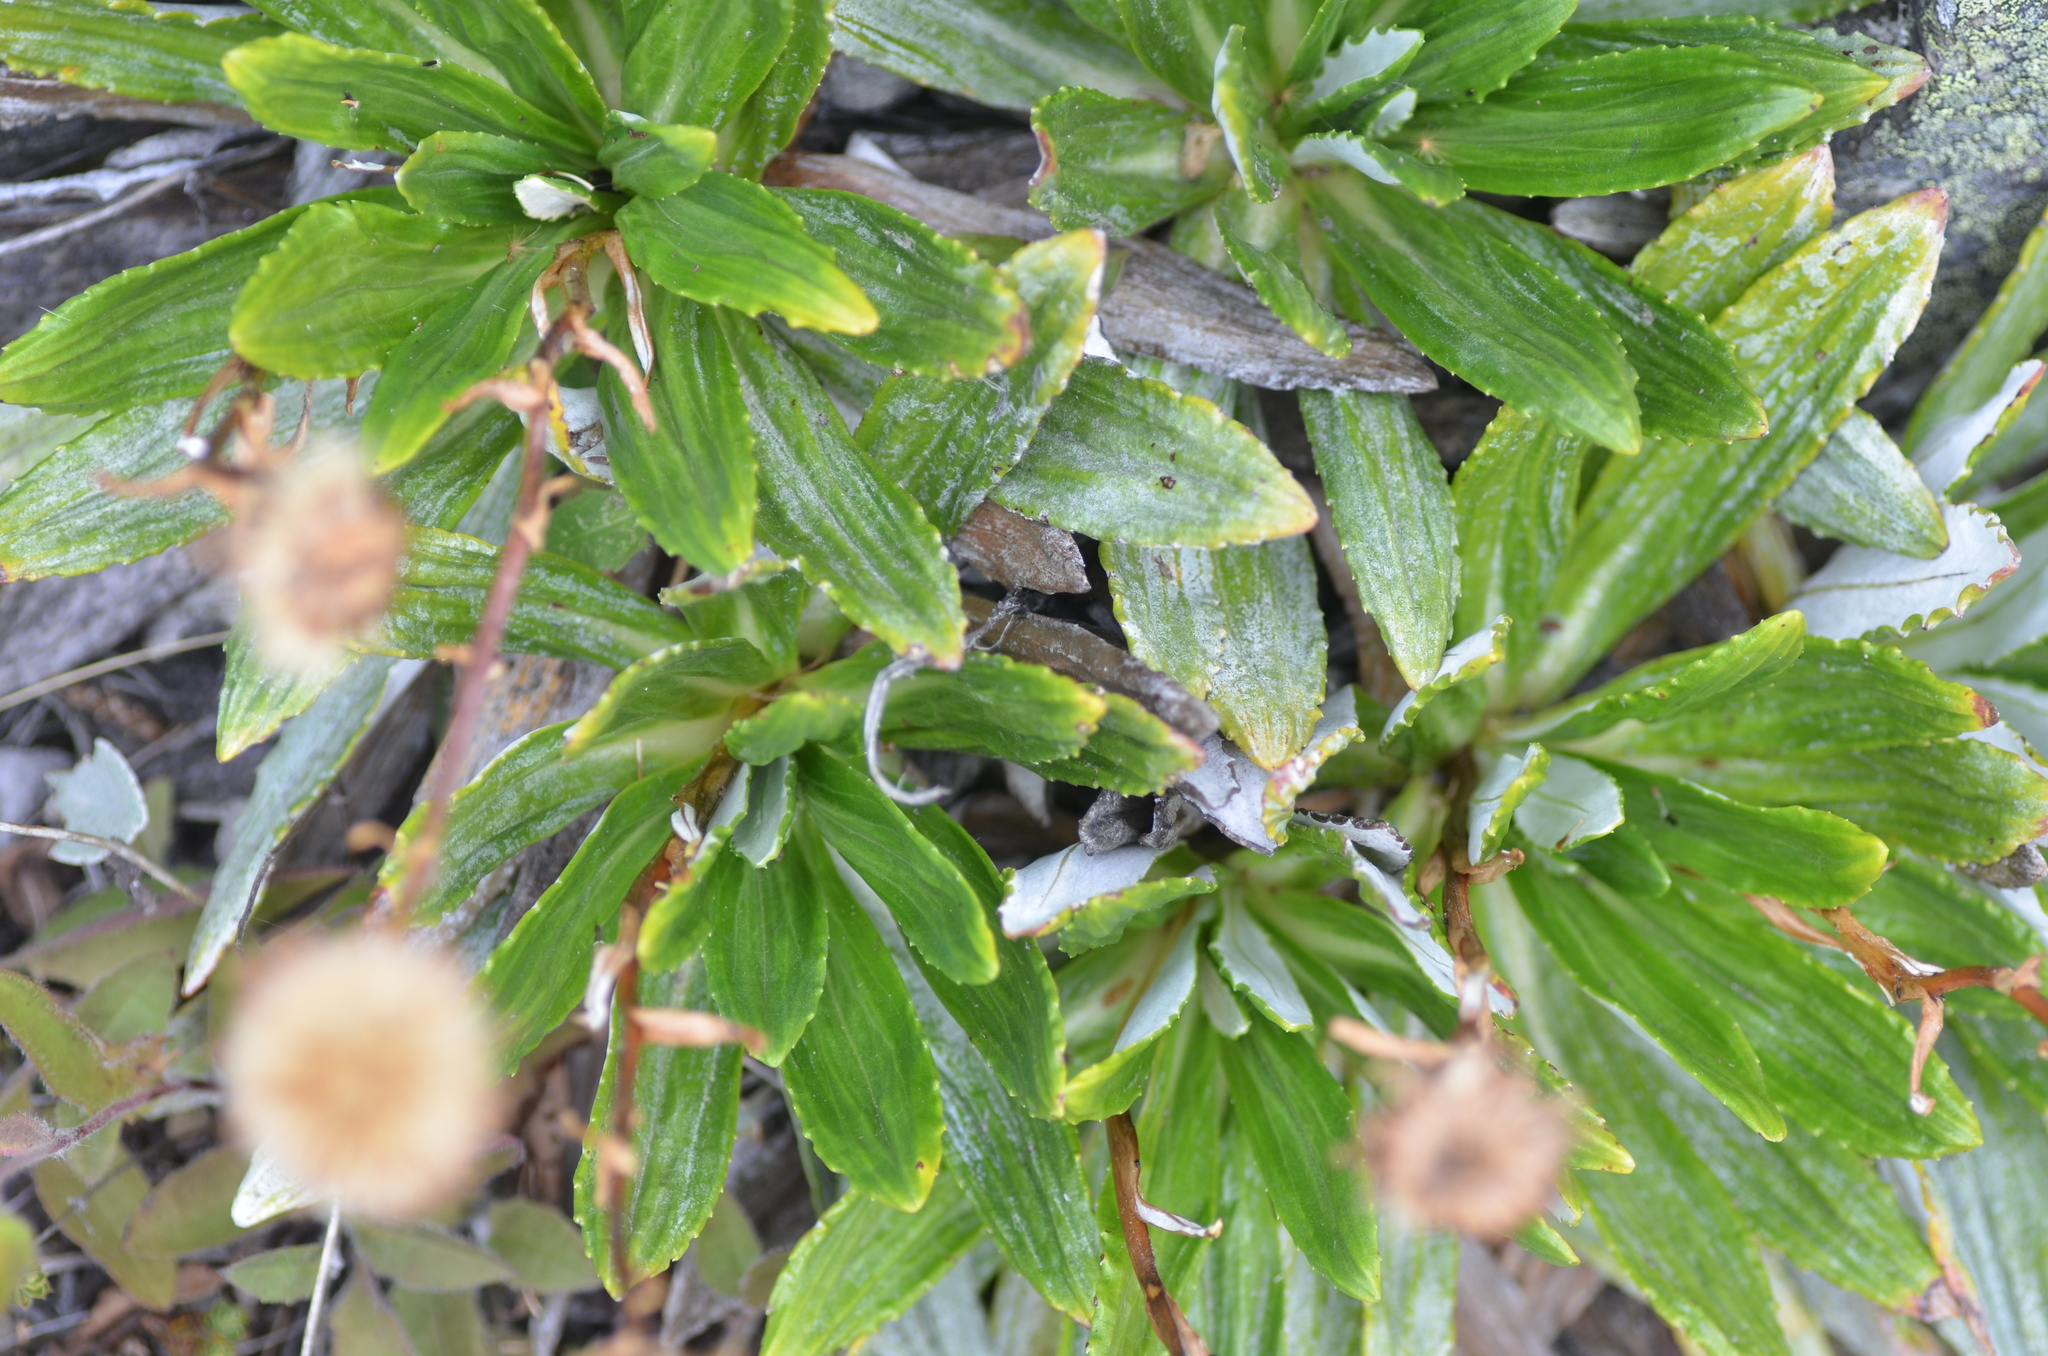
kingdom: Plantae
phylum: Tracheophyta
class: Magnoliopsida
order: Asterales
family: Asteraceae
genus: Celmisia
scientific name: Celmisia densiflora
